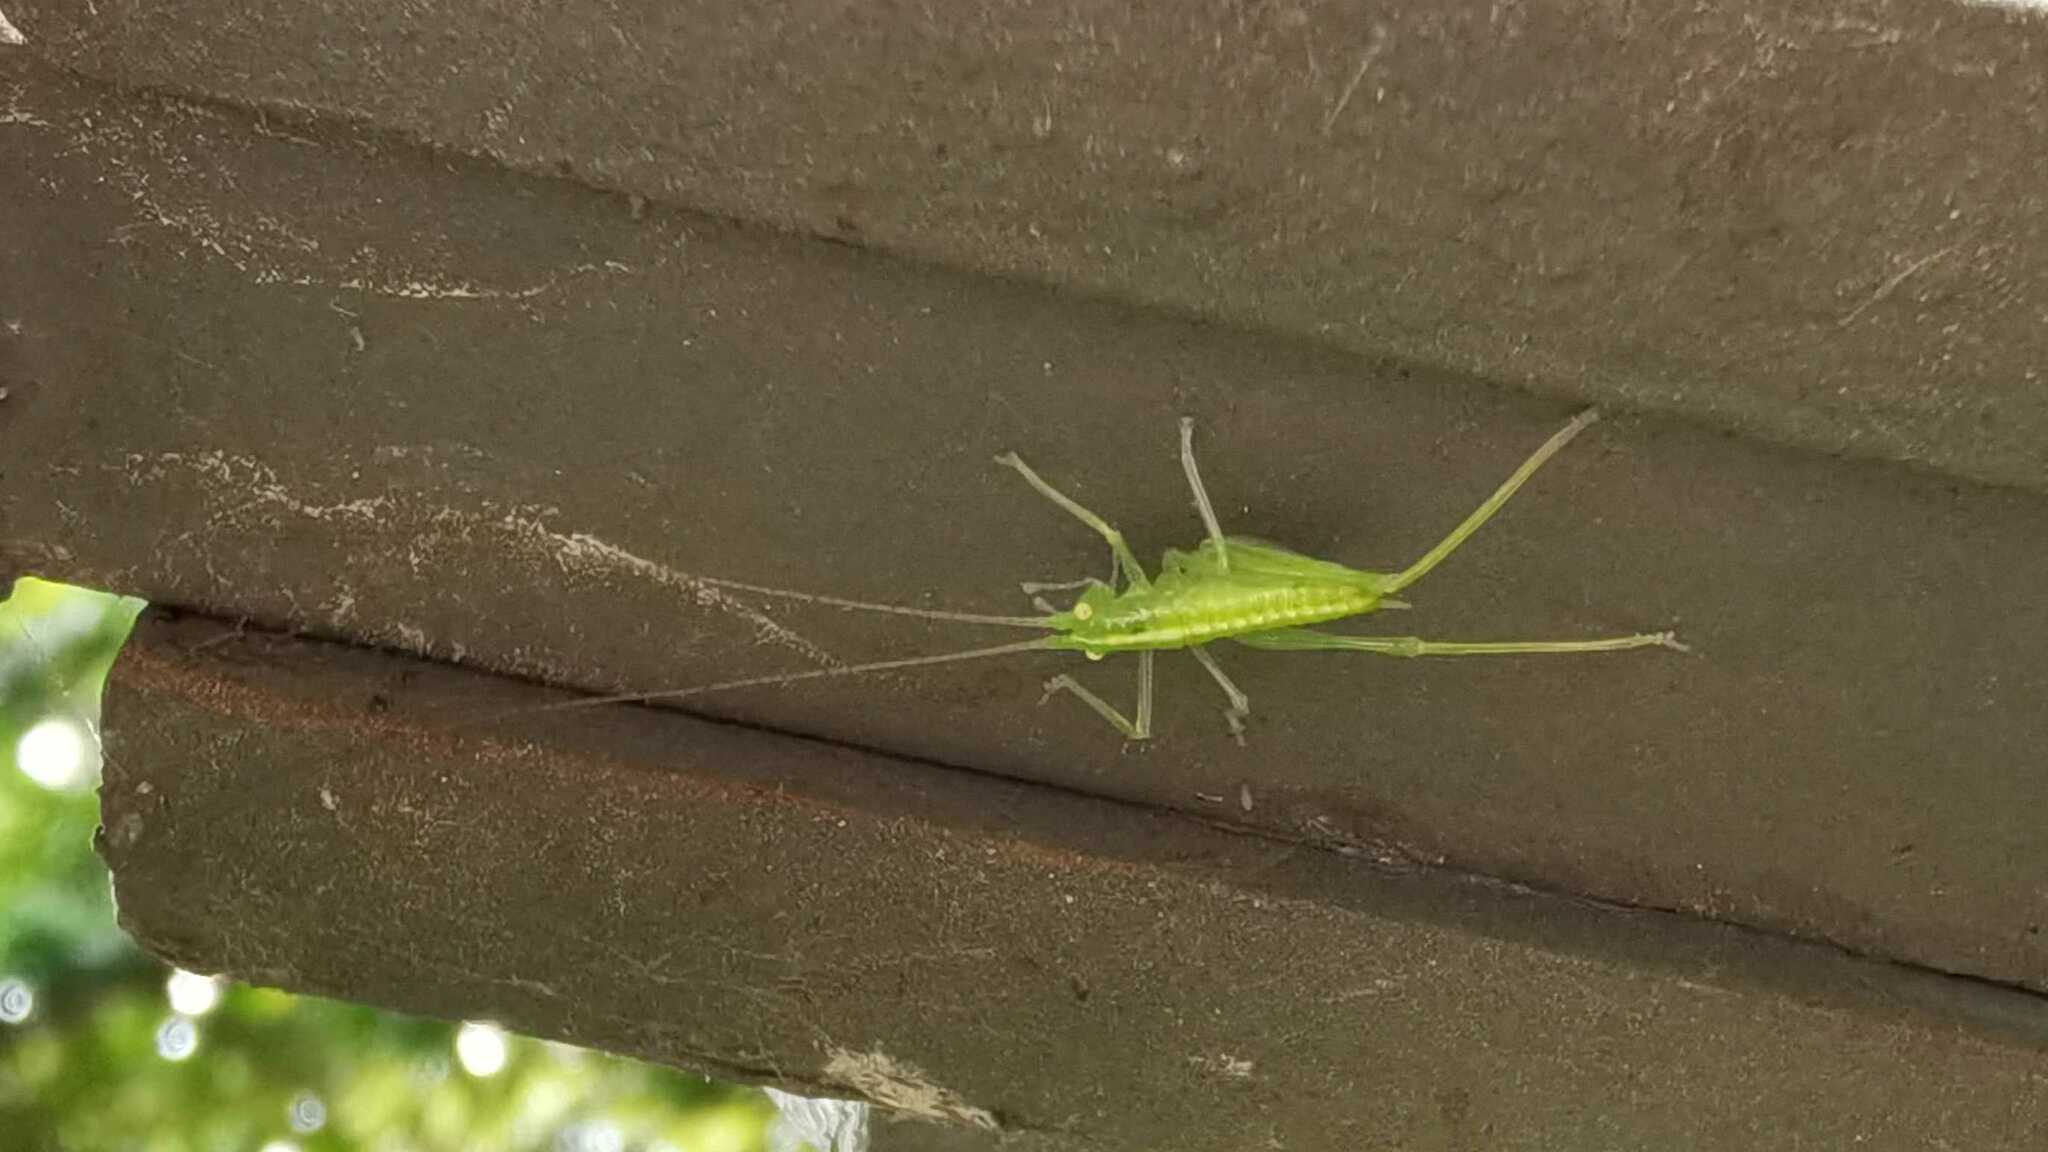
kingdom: Animalia
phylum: Arthropoda
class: Insecta
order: Orthoptera
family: Tettigoniidae
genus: Meconema
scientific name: Meconema meridionale
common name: Southern oak bush-cricket
